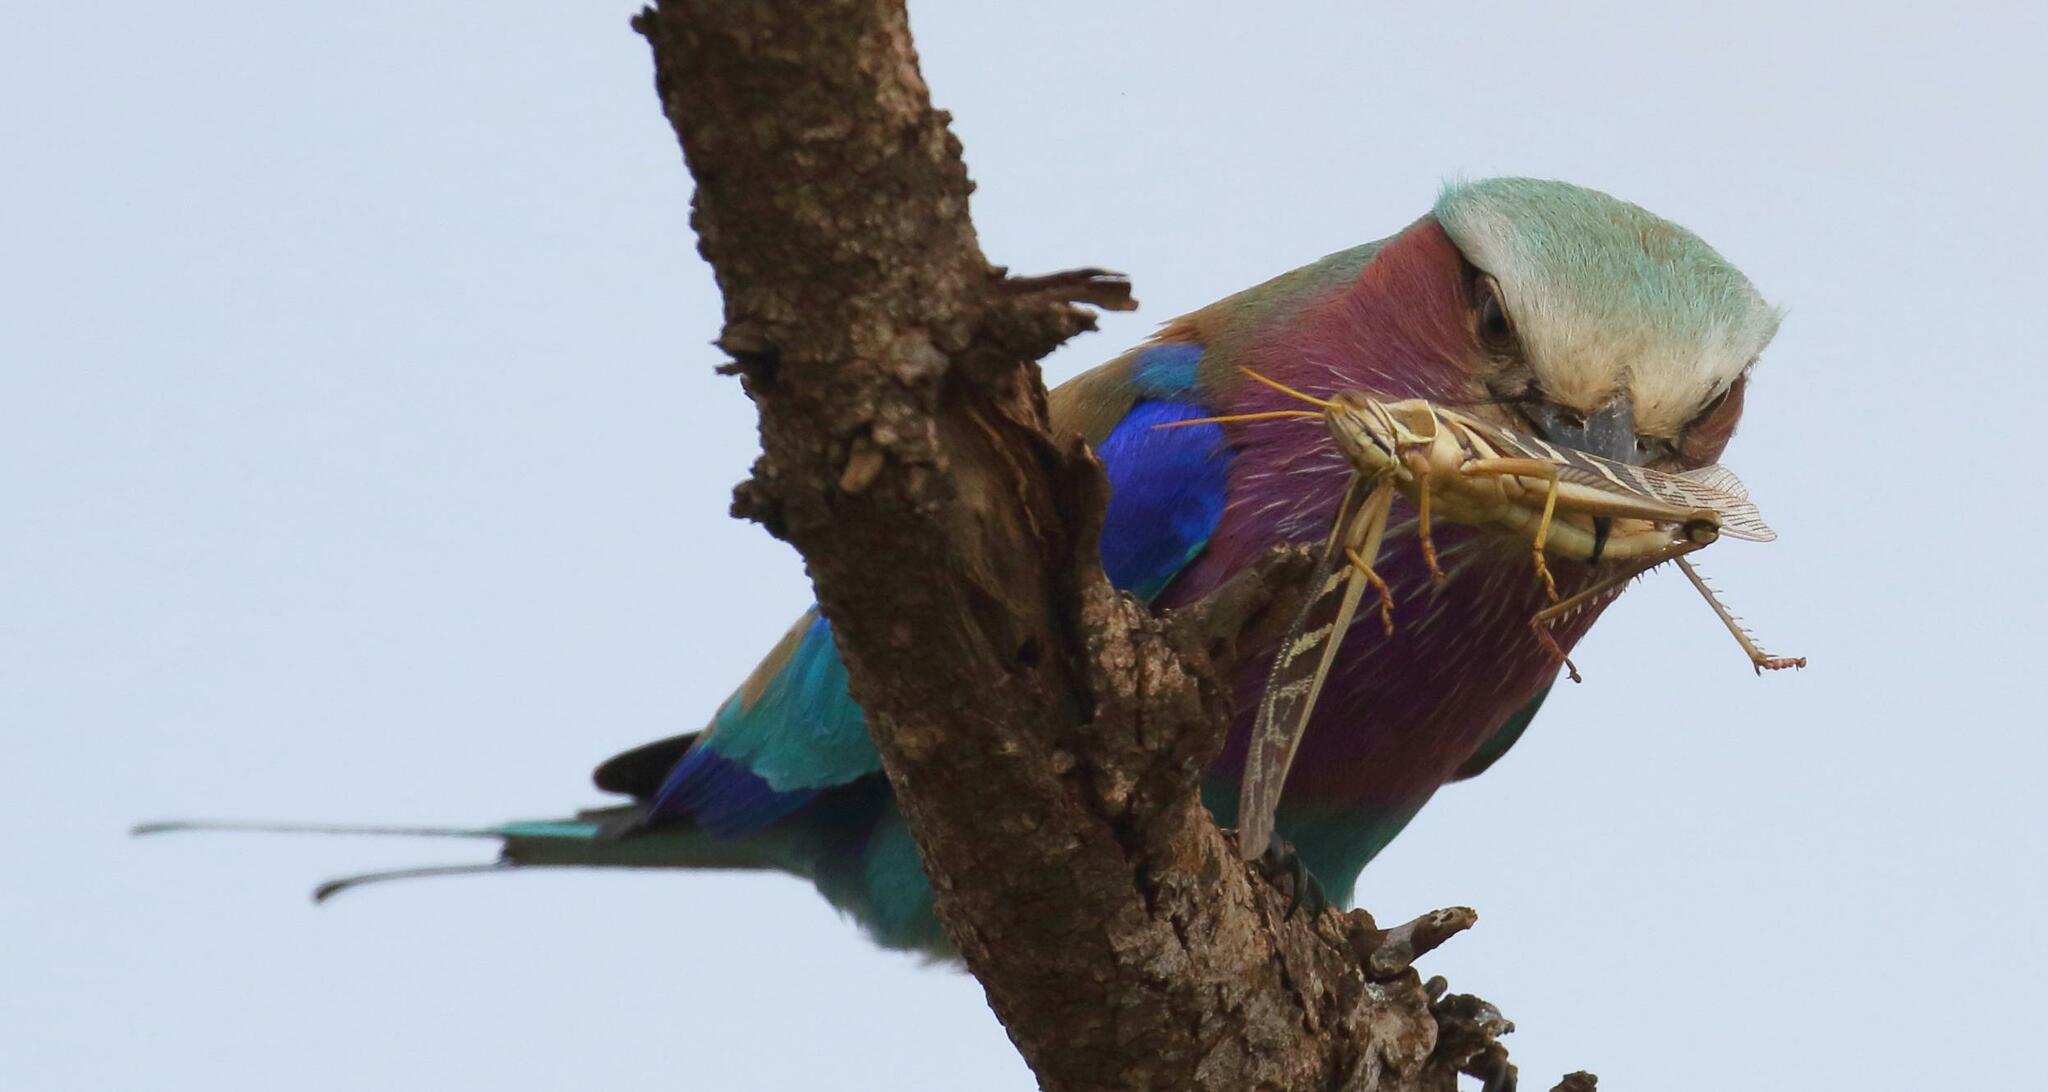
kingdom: Animalia
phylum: Chordata
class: Aves
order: Coraciiformes
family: Coraciidae
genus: Coracias
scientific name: Coracias caudatus
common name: Lilac-breasted roller
